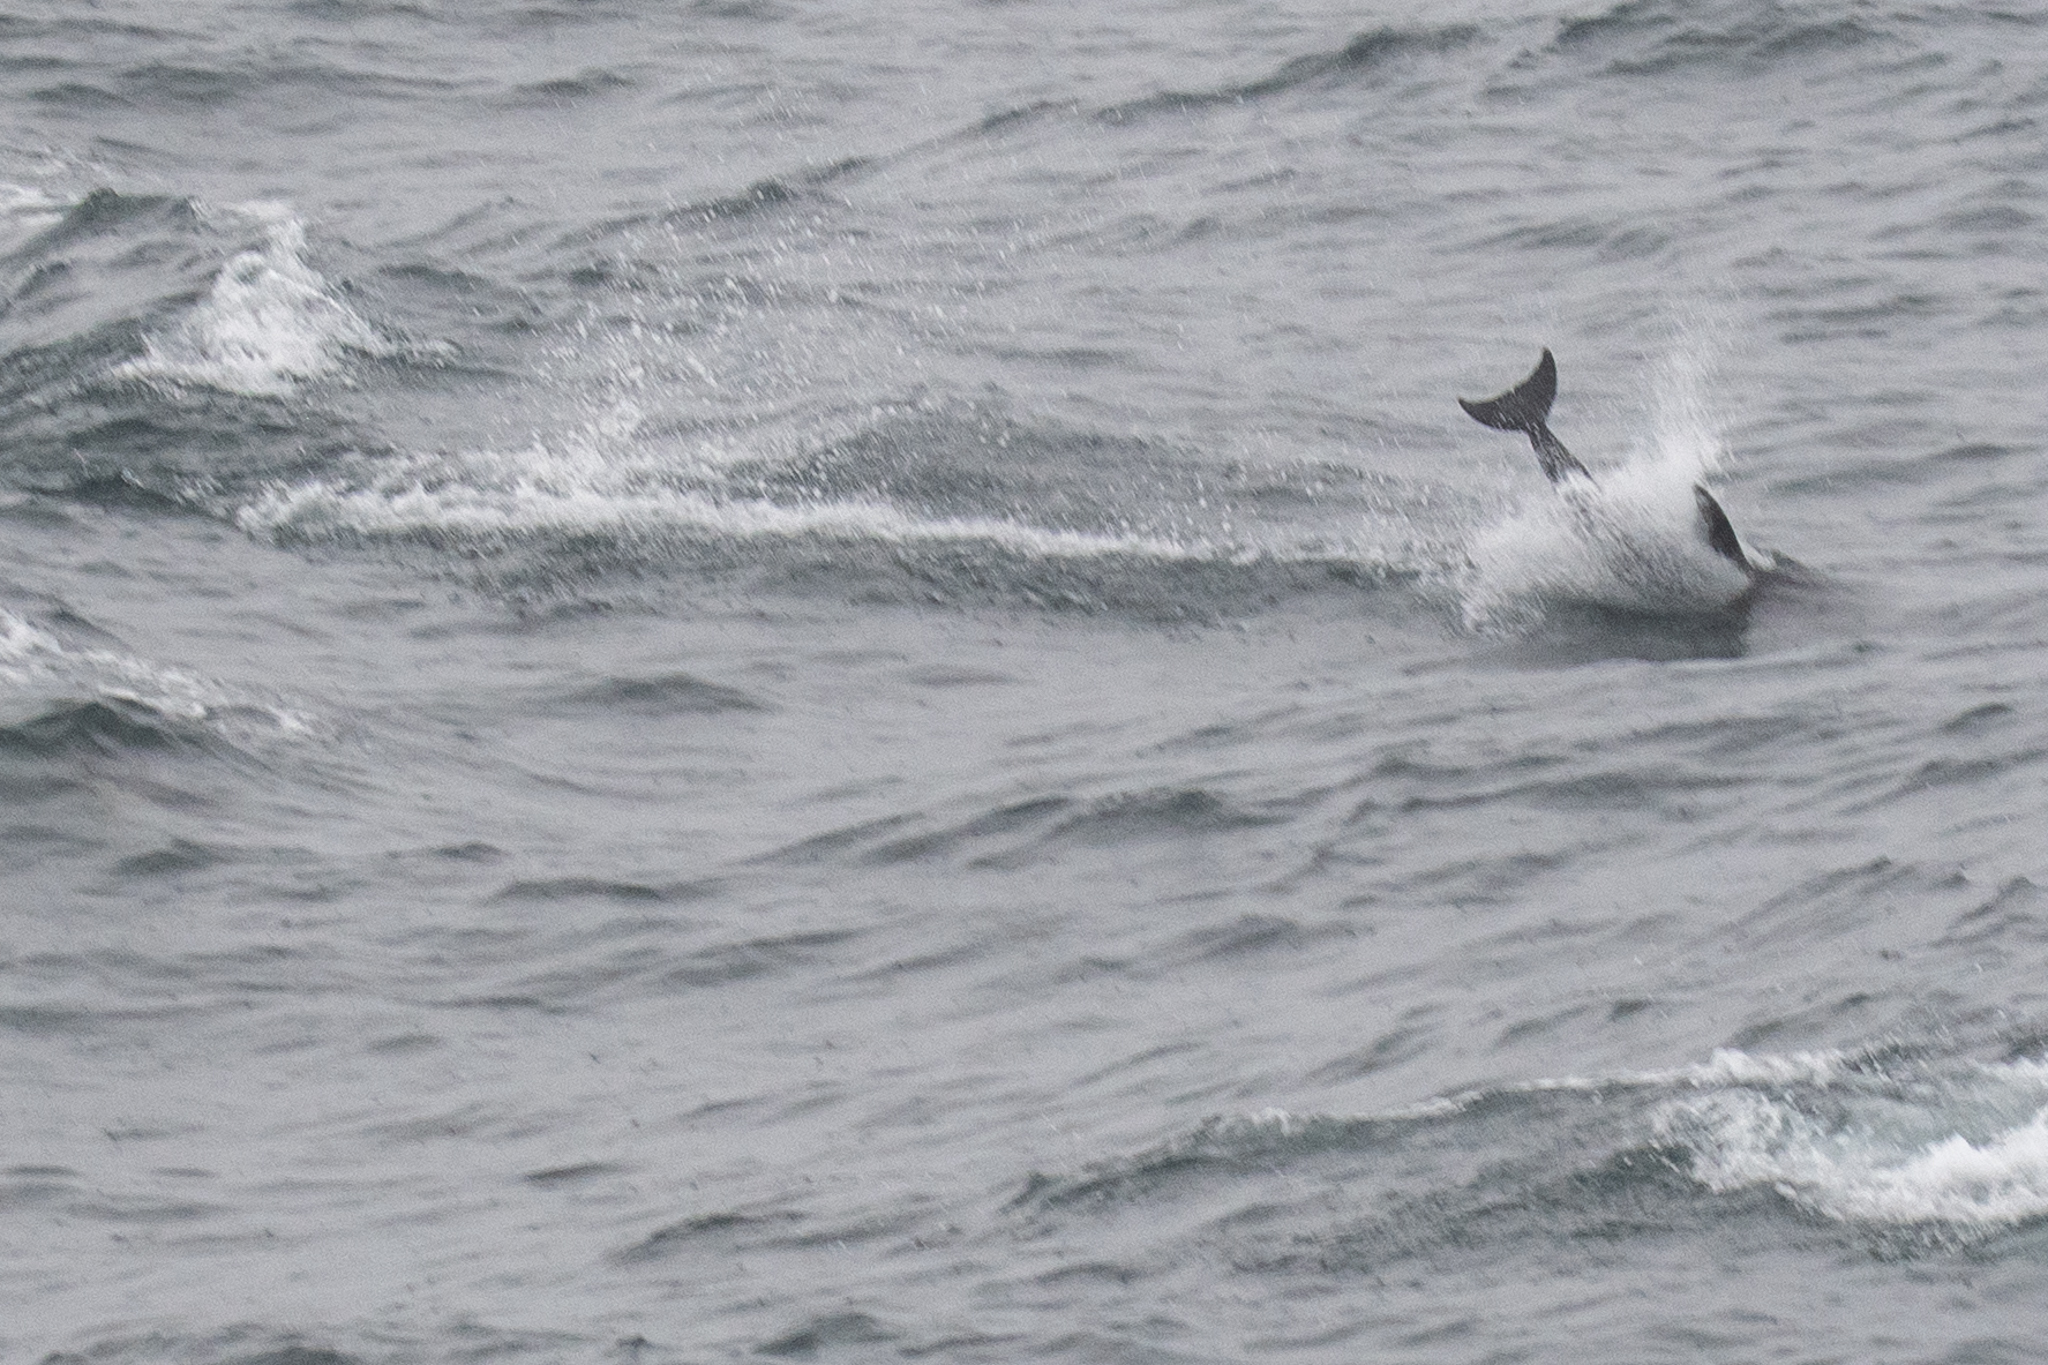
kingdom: Animalia
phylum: Chordata
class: Mammalia
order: Cetacea
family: Delphinidae
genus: Delphinus
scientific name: Delphinus delphis
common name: Common dolphin
